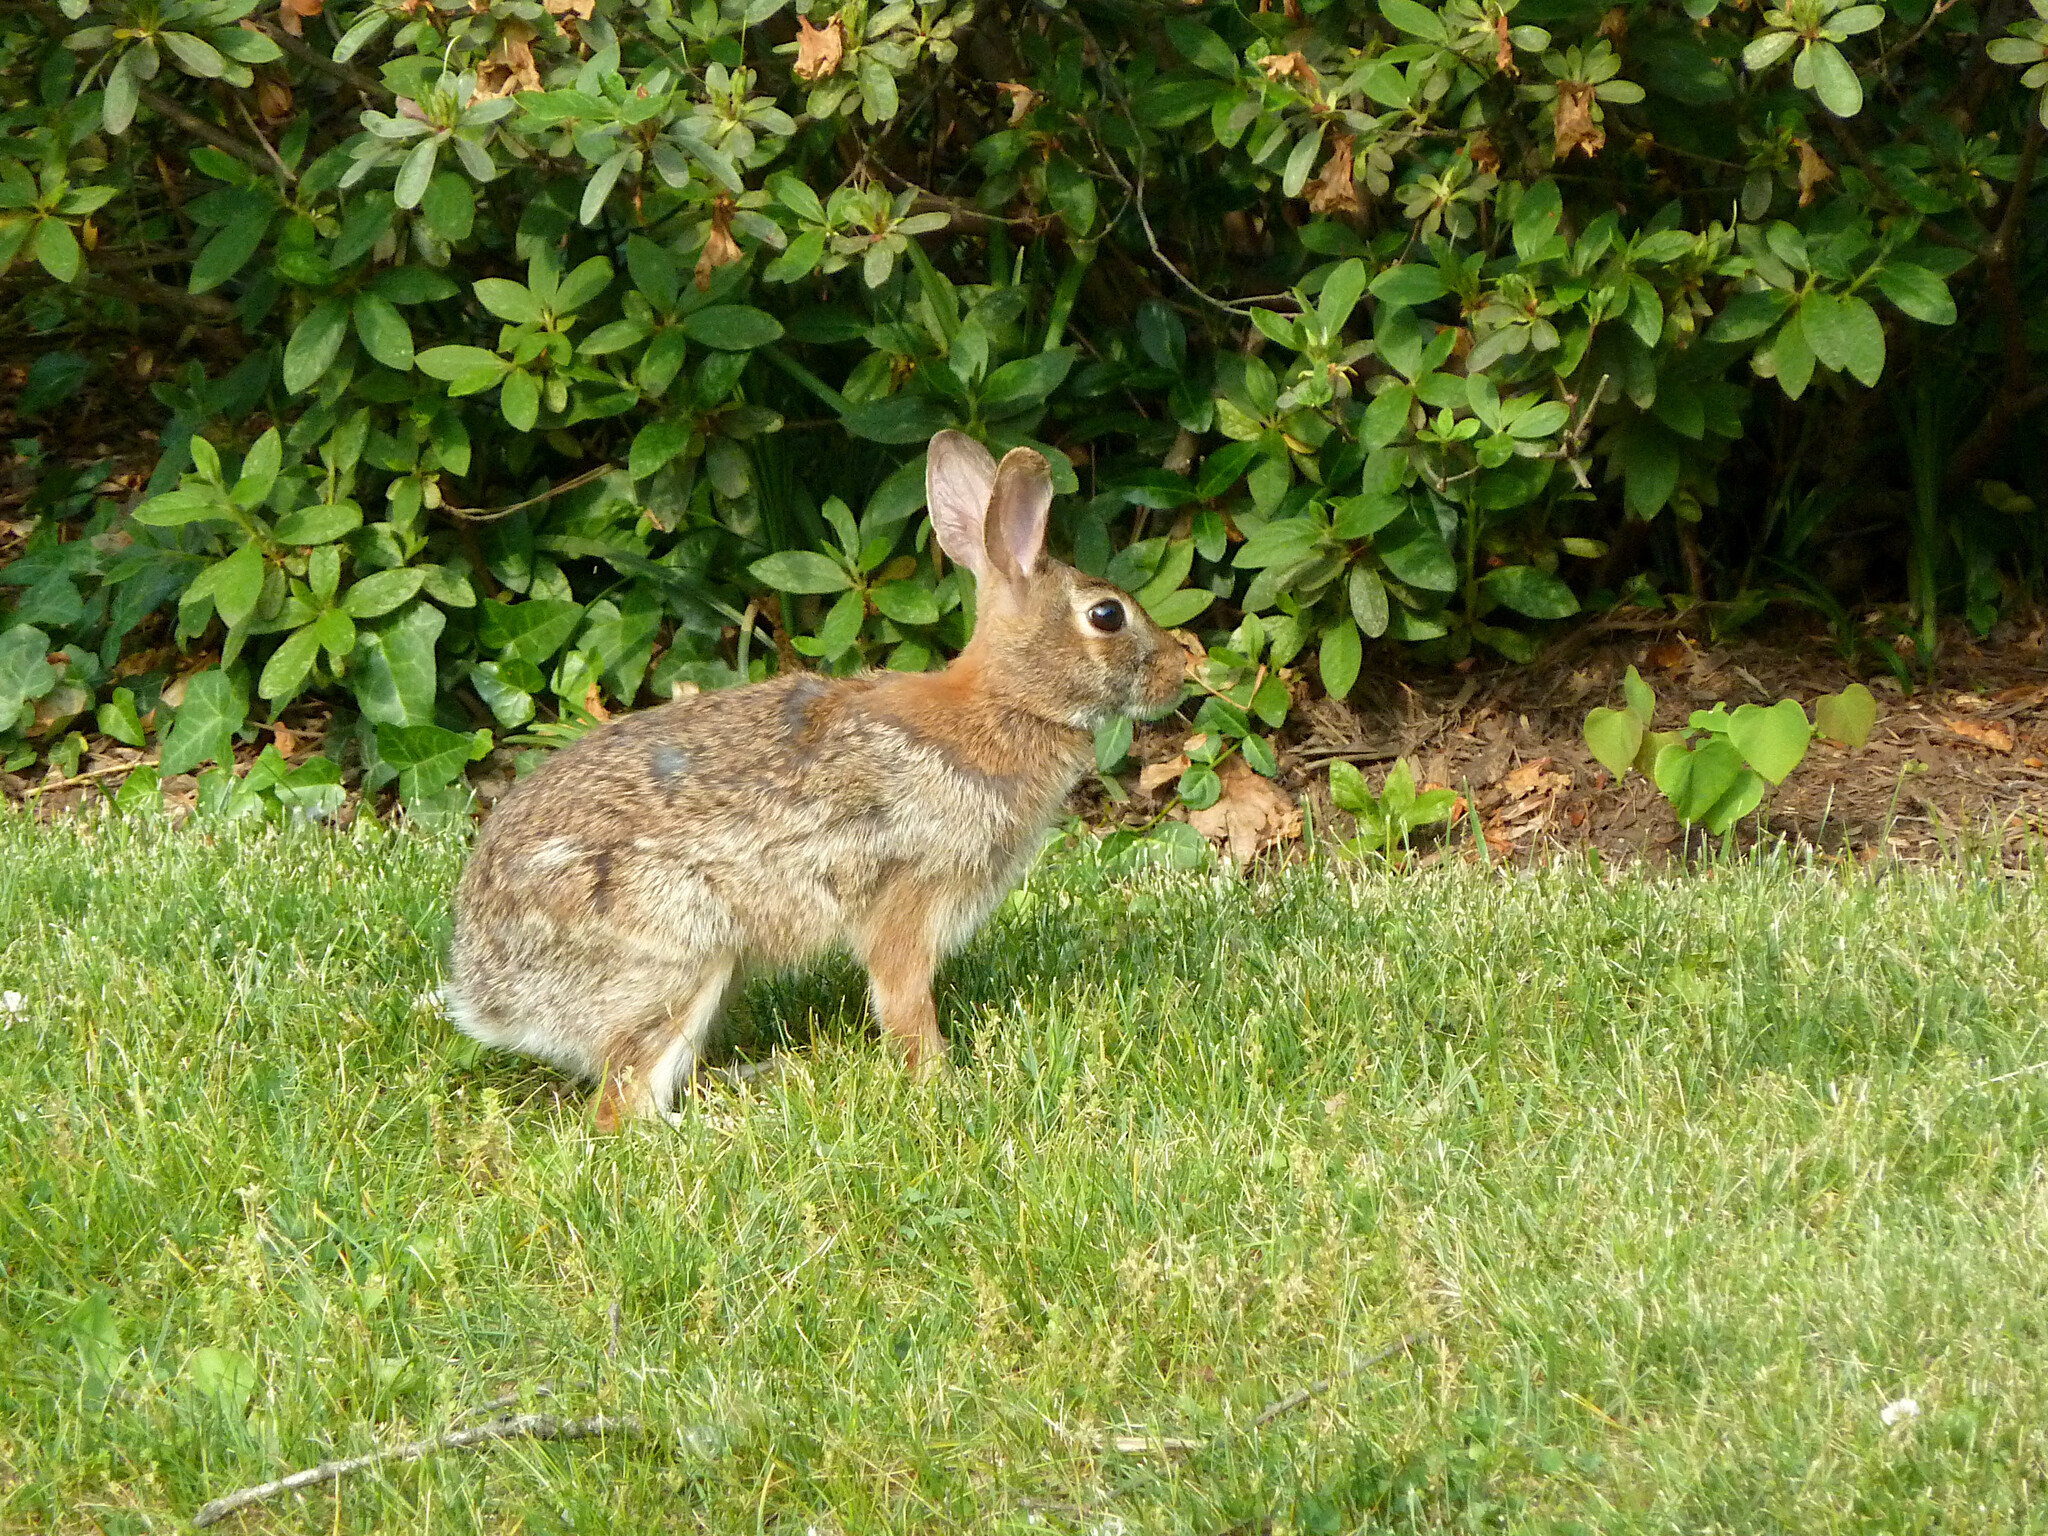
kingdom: Animalia
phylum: Chordata
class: Mammalia
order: Lagomorpha
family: Leporidae
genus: Sylvilagus
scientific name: Sylvilagus floridanus
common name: Eastern cottontail
